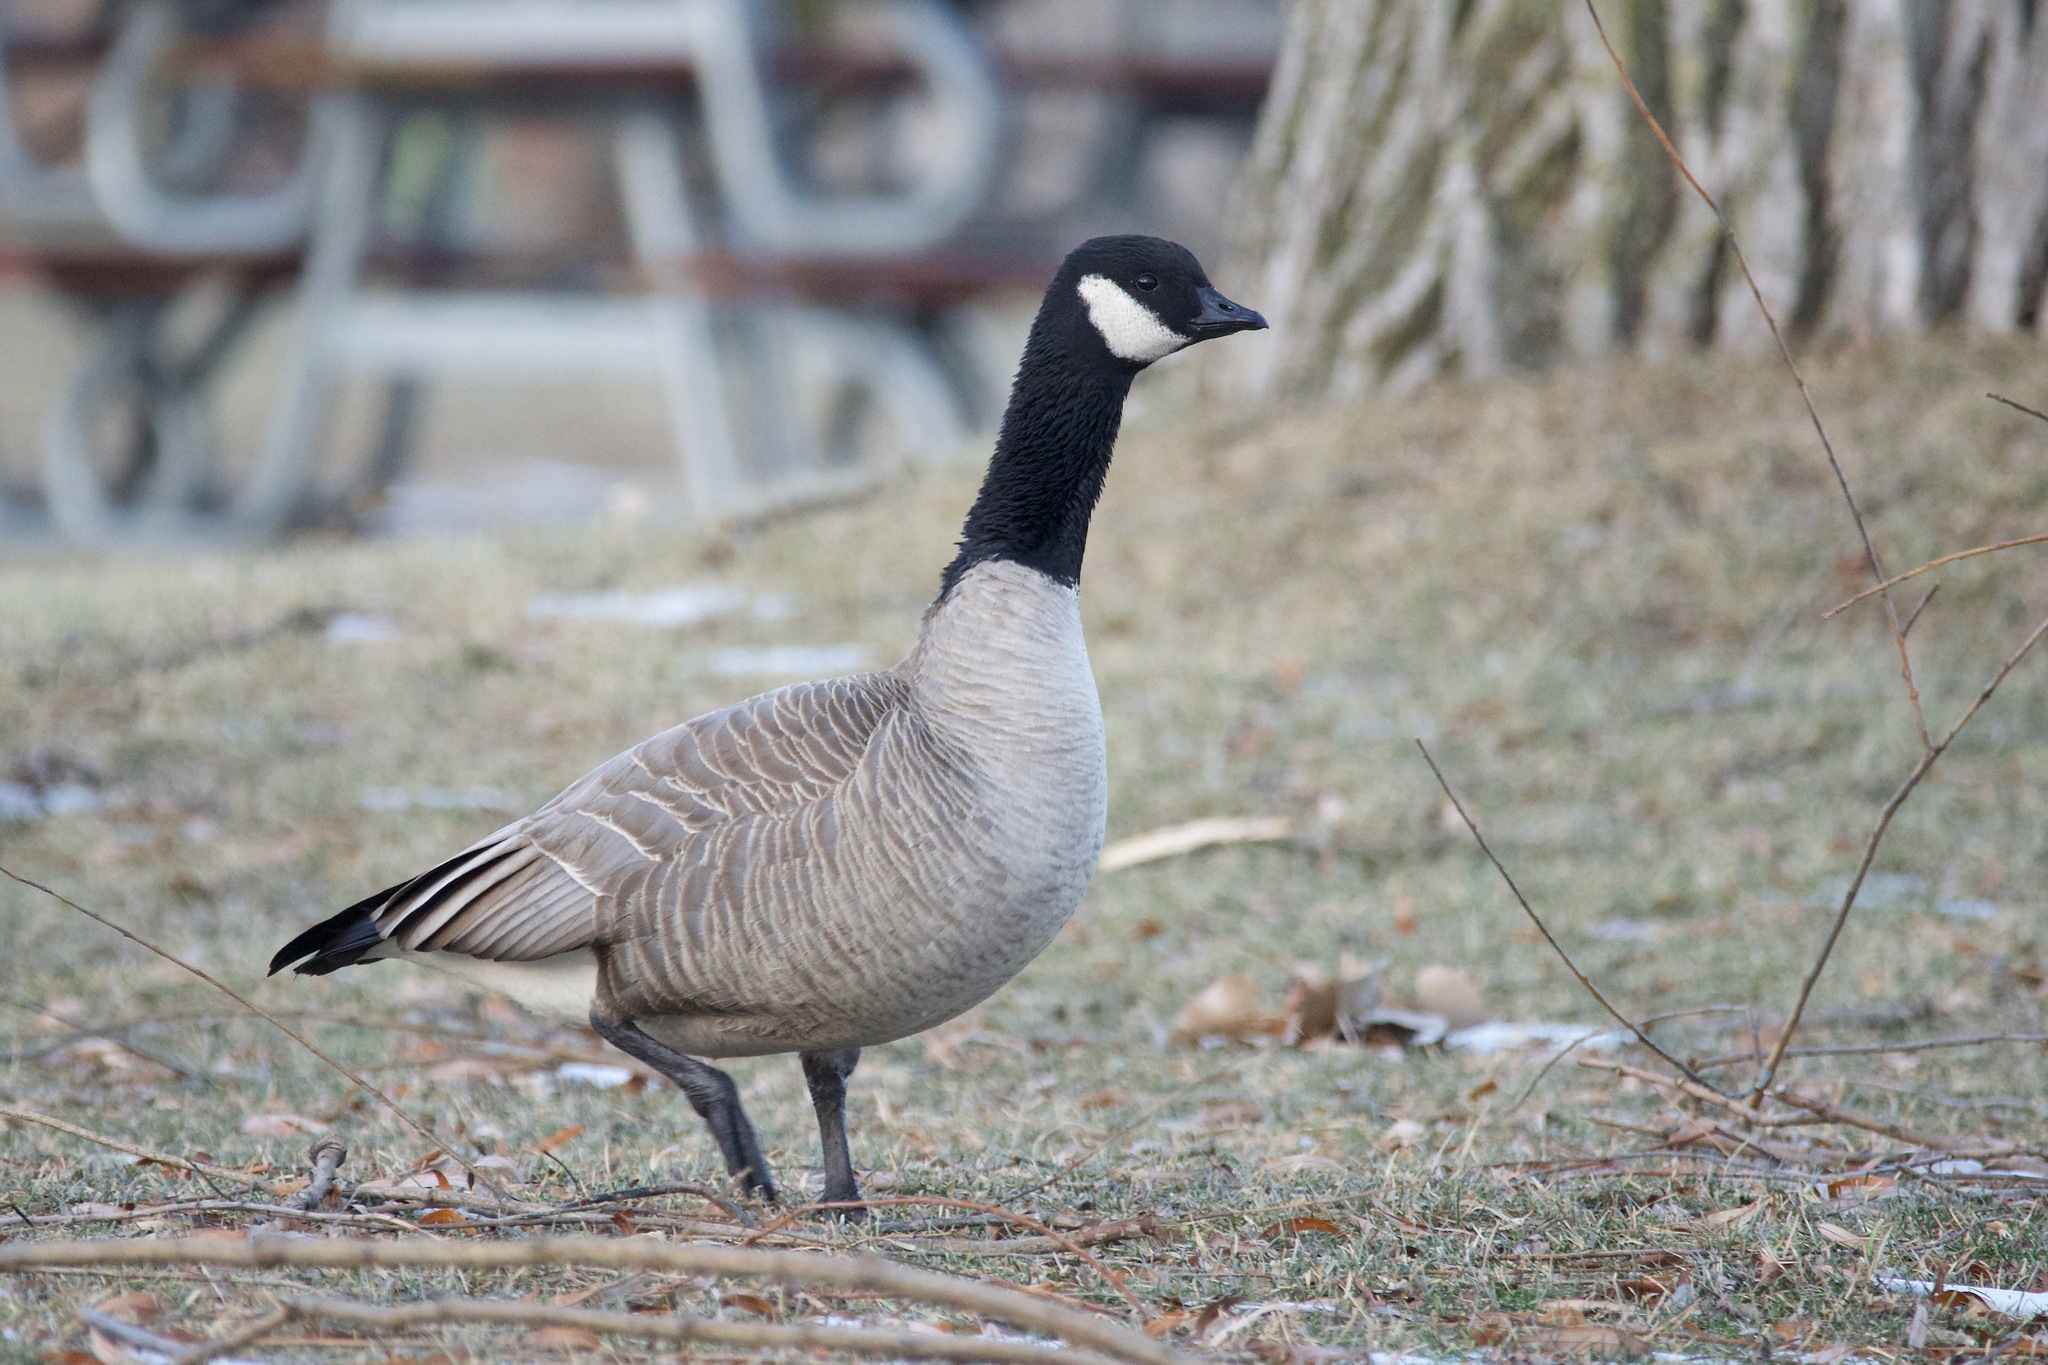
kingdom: Animalia
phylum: Chordata
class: Aves
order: Anseriformes
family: Anatidae
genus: Branta
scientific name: Branta hutchinsii
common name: Cackling goose
